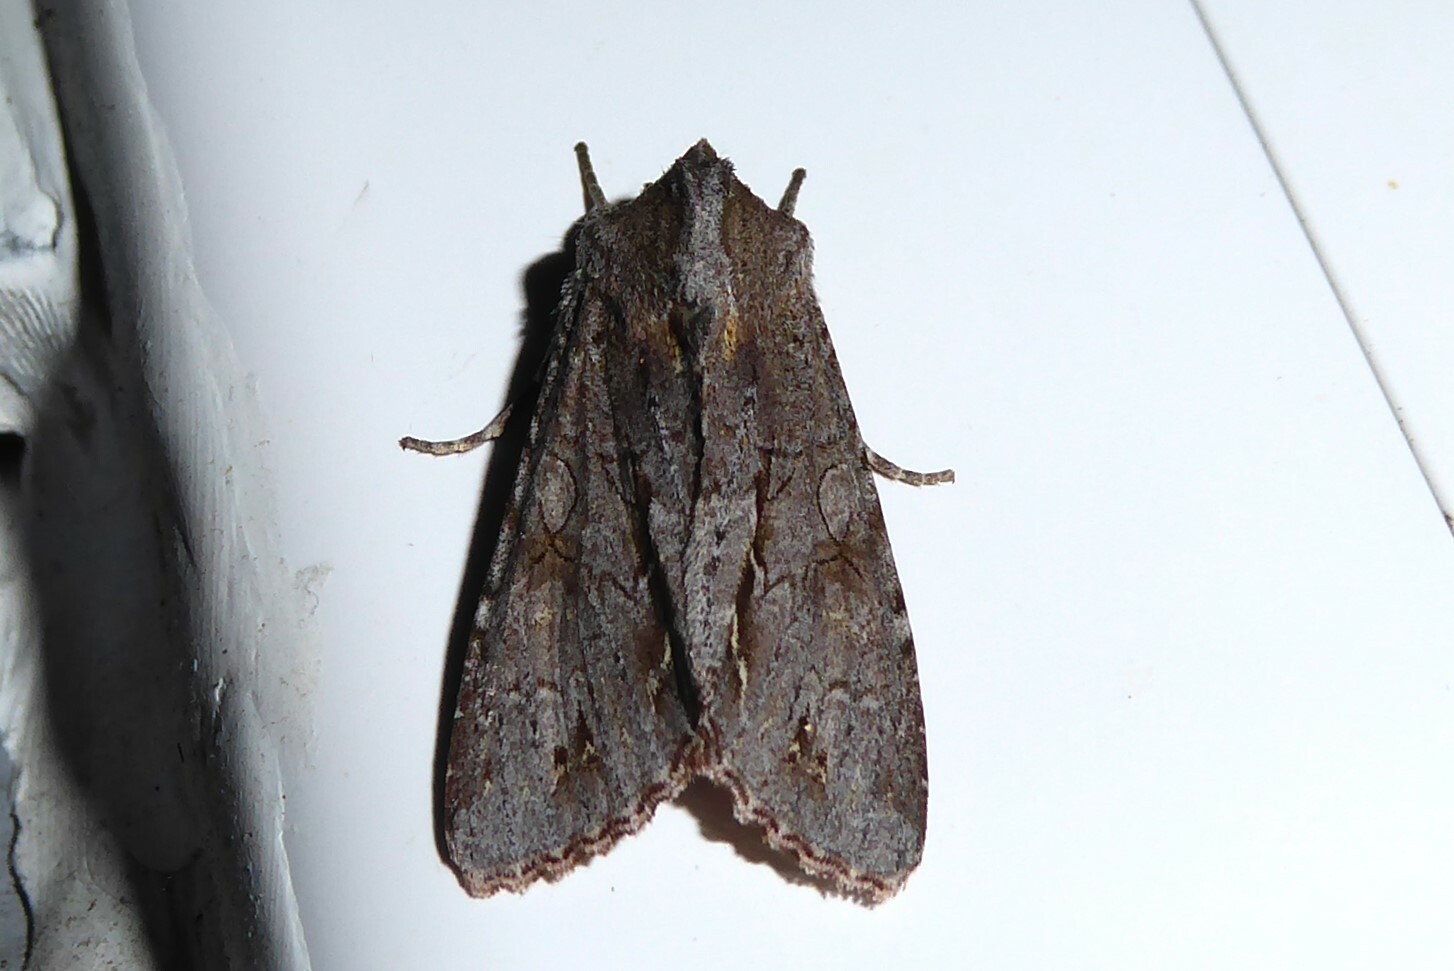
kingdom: Animalia
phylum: Arthropoda
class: Insecta
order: Lepidoptera
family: Noctuidae
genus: Ichneutica
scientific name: Ichneutica
